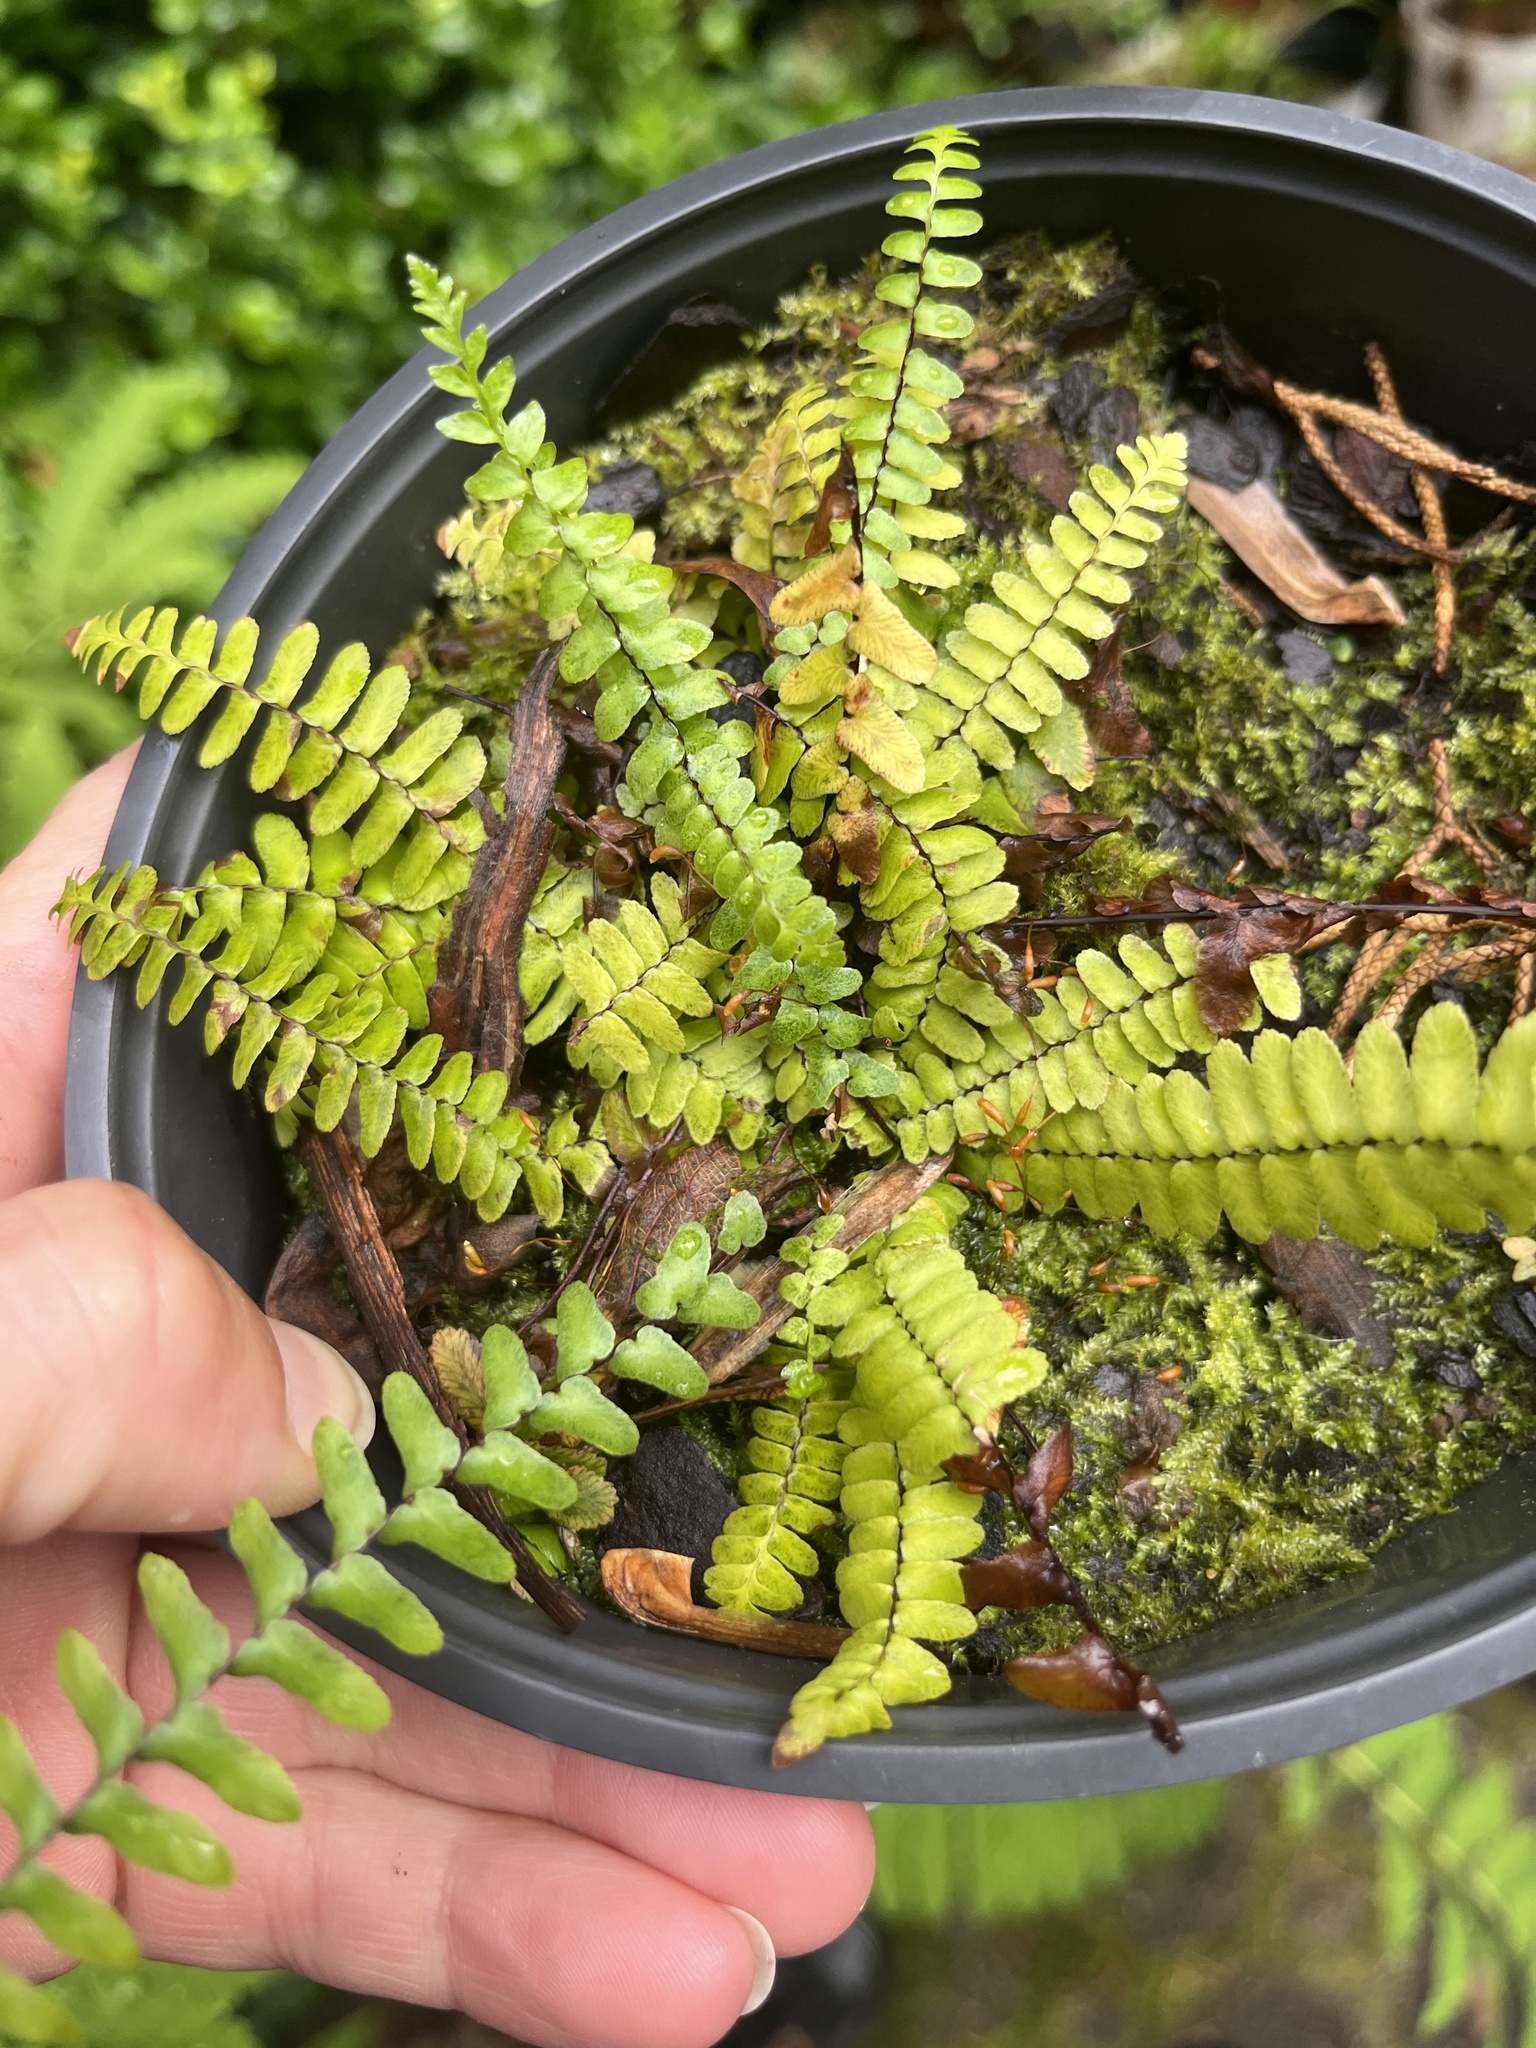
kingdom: Plantae
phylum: Tracheophyta
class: Polypodiopsida
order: Polypodiales
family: Aspleniaceae
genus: Asplenium
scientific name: Asplenium platyneuron
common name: Ebony spleenwort
